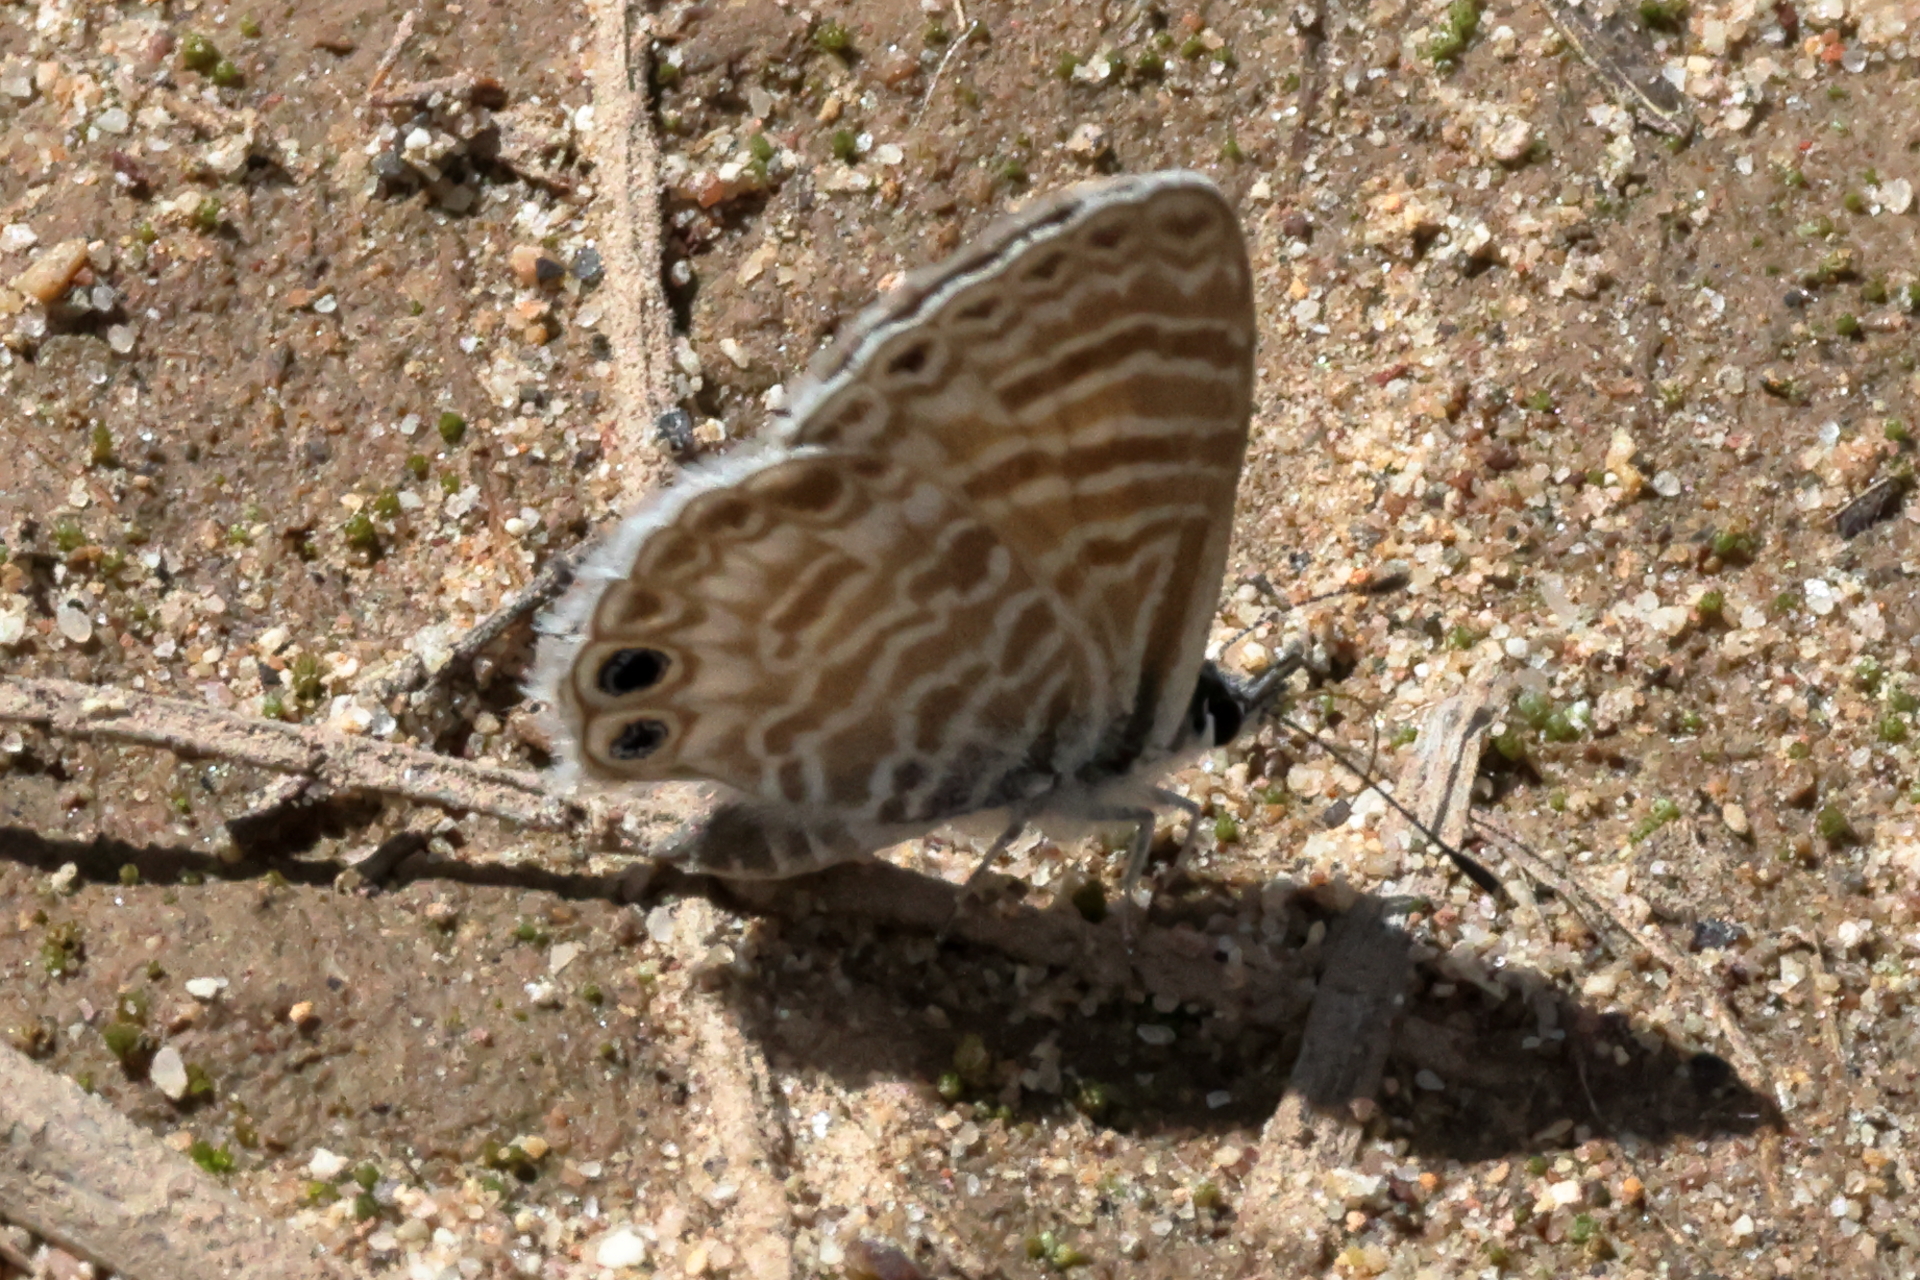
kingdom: Animalia
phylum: Arthropoda
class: Insecta
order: Lepidoptera
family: Lycaenidae
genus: Leptotes
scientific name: Leptotes marina
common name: Marine blue
